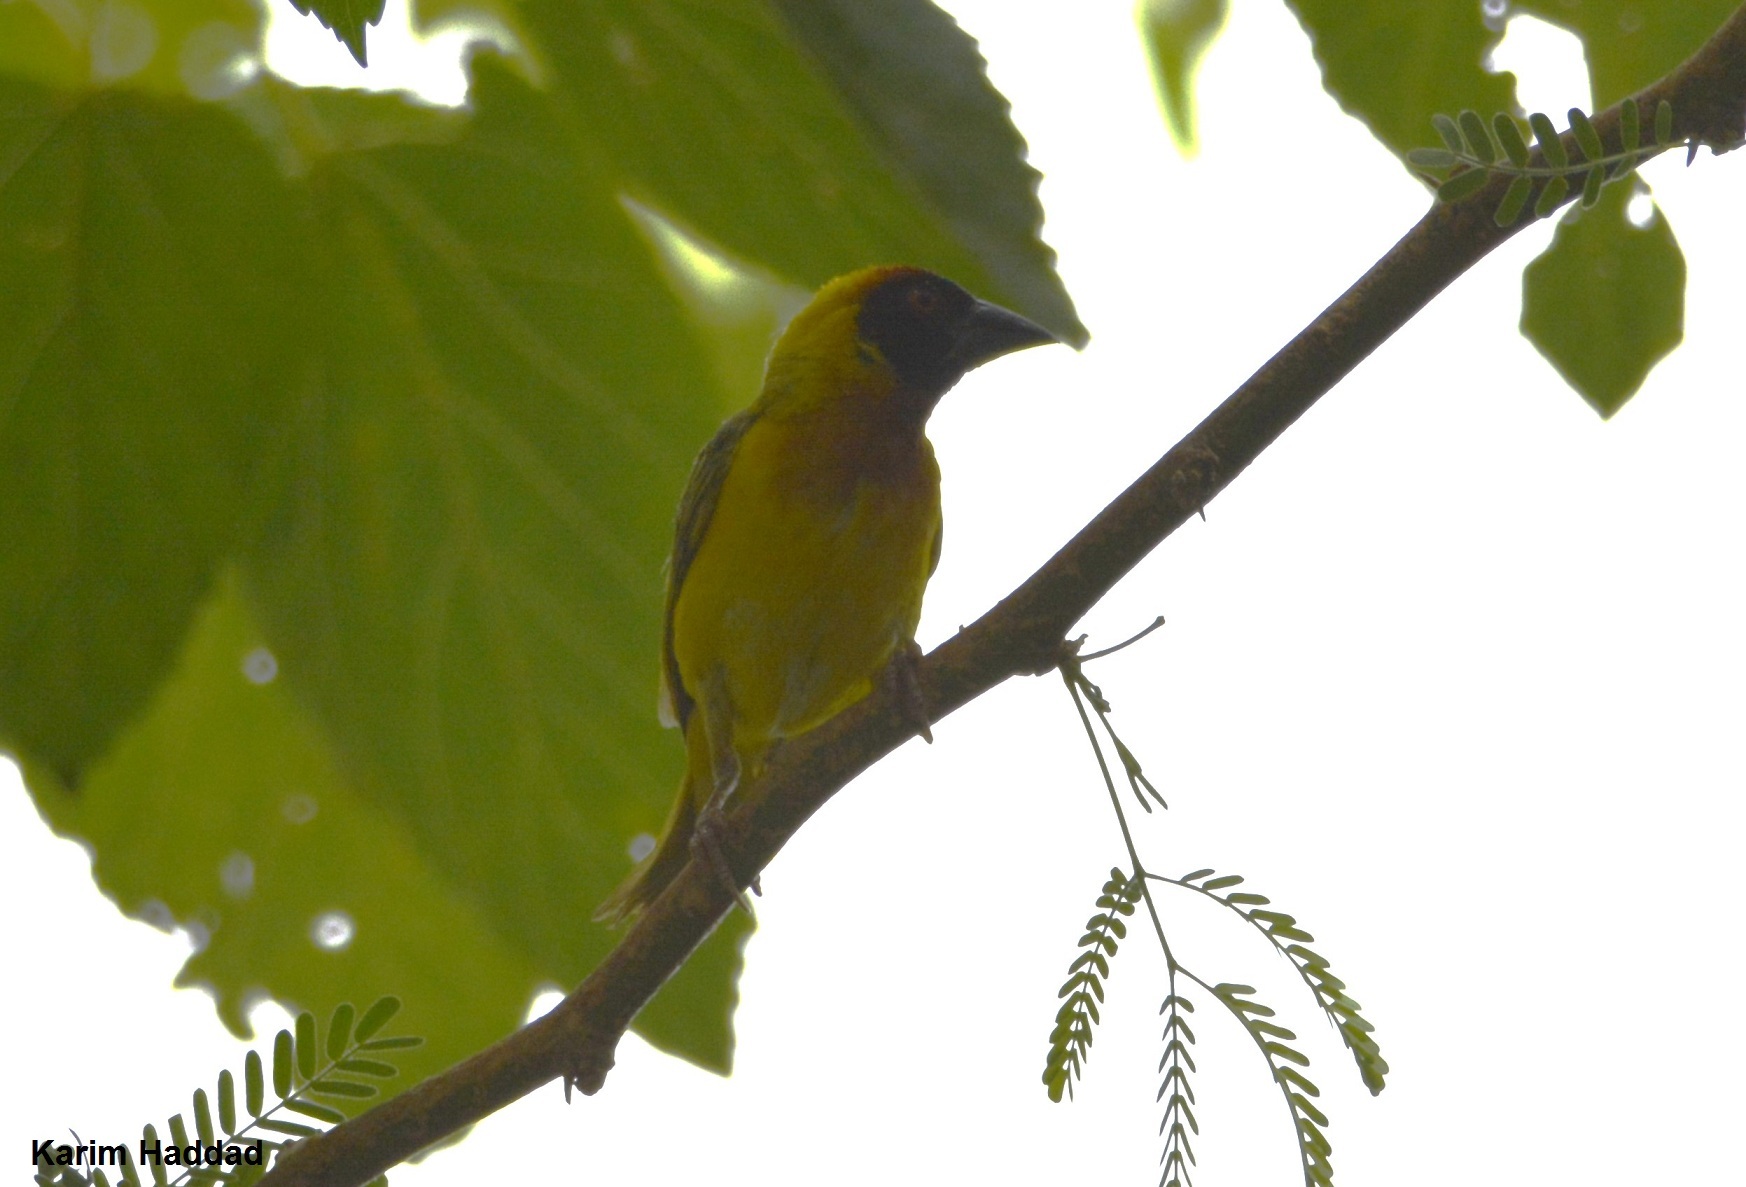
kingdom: Animalia
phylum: Chordata
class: Aves
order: Passeriformes
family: Ploceidae
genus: Ploceus
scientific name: Ploceus vitellinus
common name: Vitelline masked weaver
